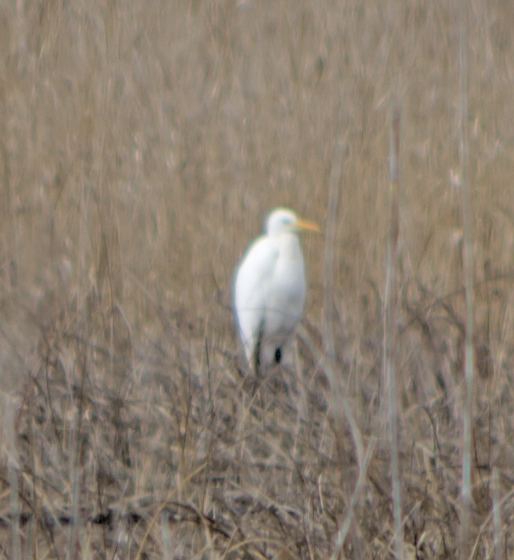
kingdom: Animalia
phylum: Chordata
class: Aves
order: Pelecaniformes
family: Ardeidae
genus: Ardea
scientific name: Ardea alba
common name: Great egret
